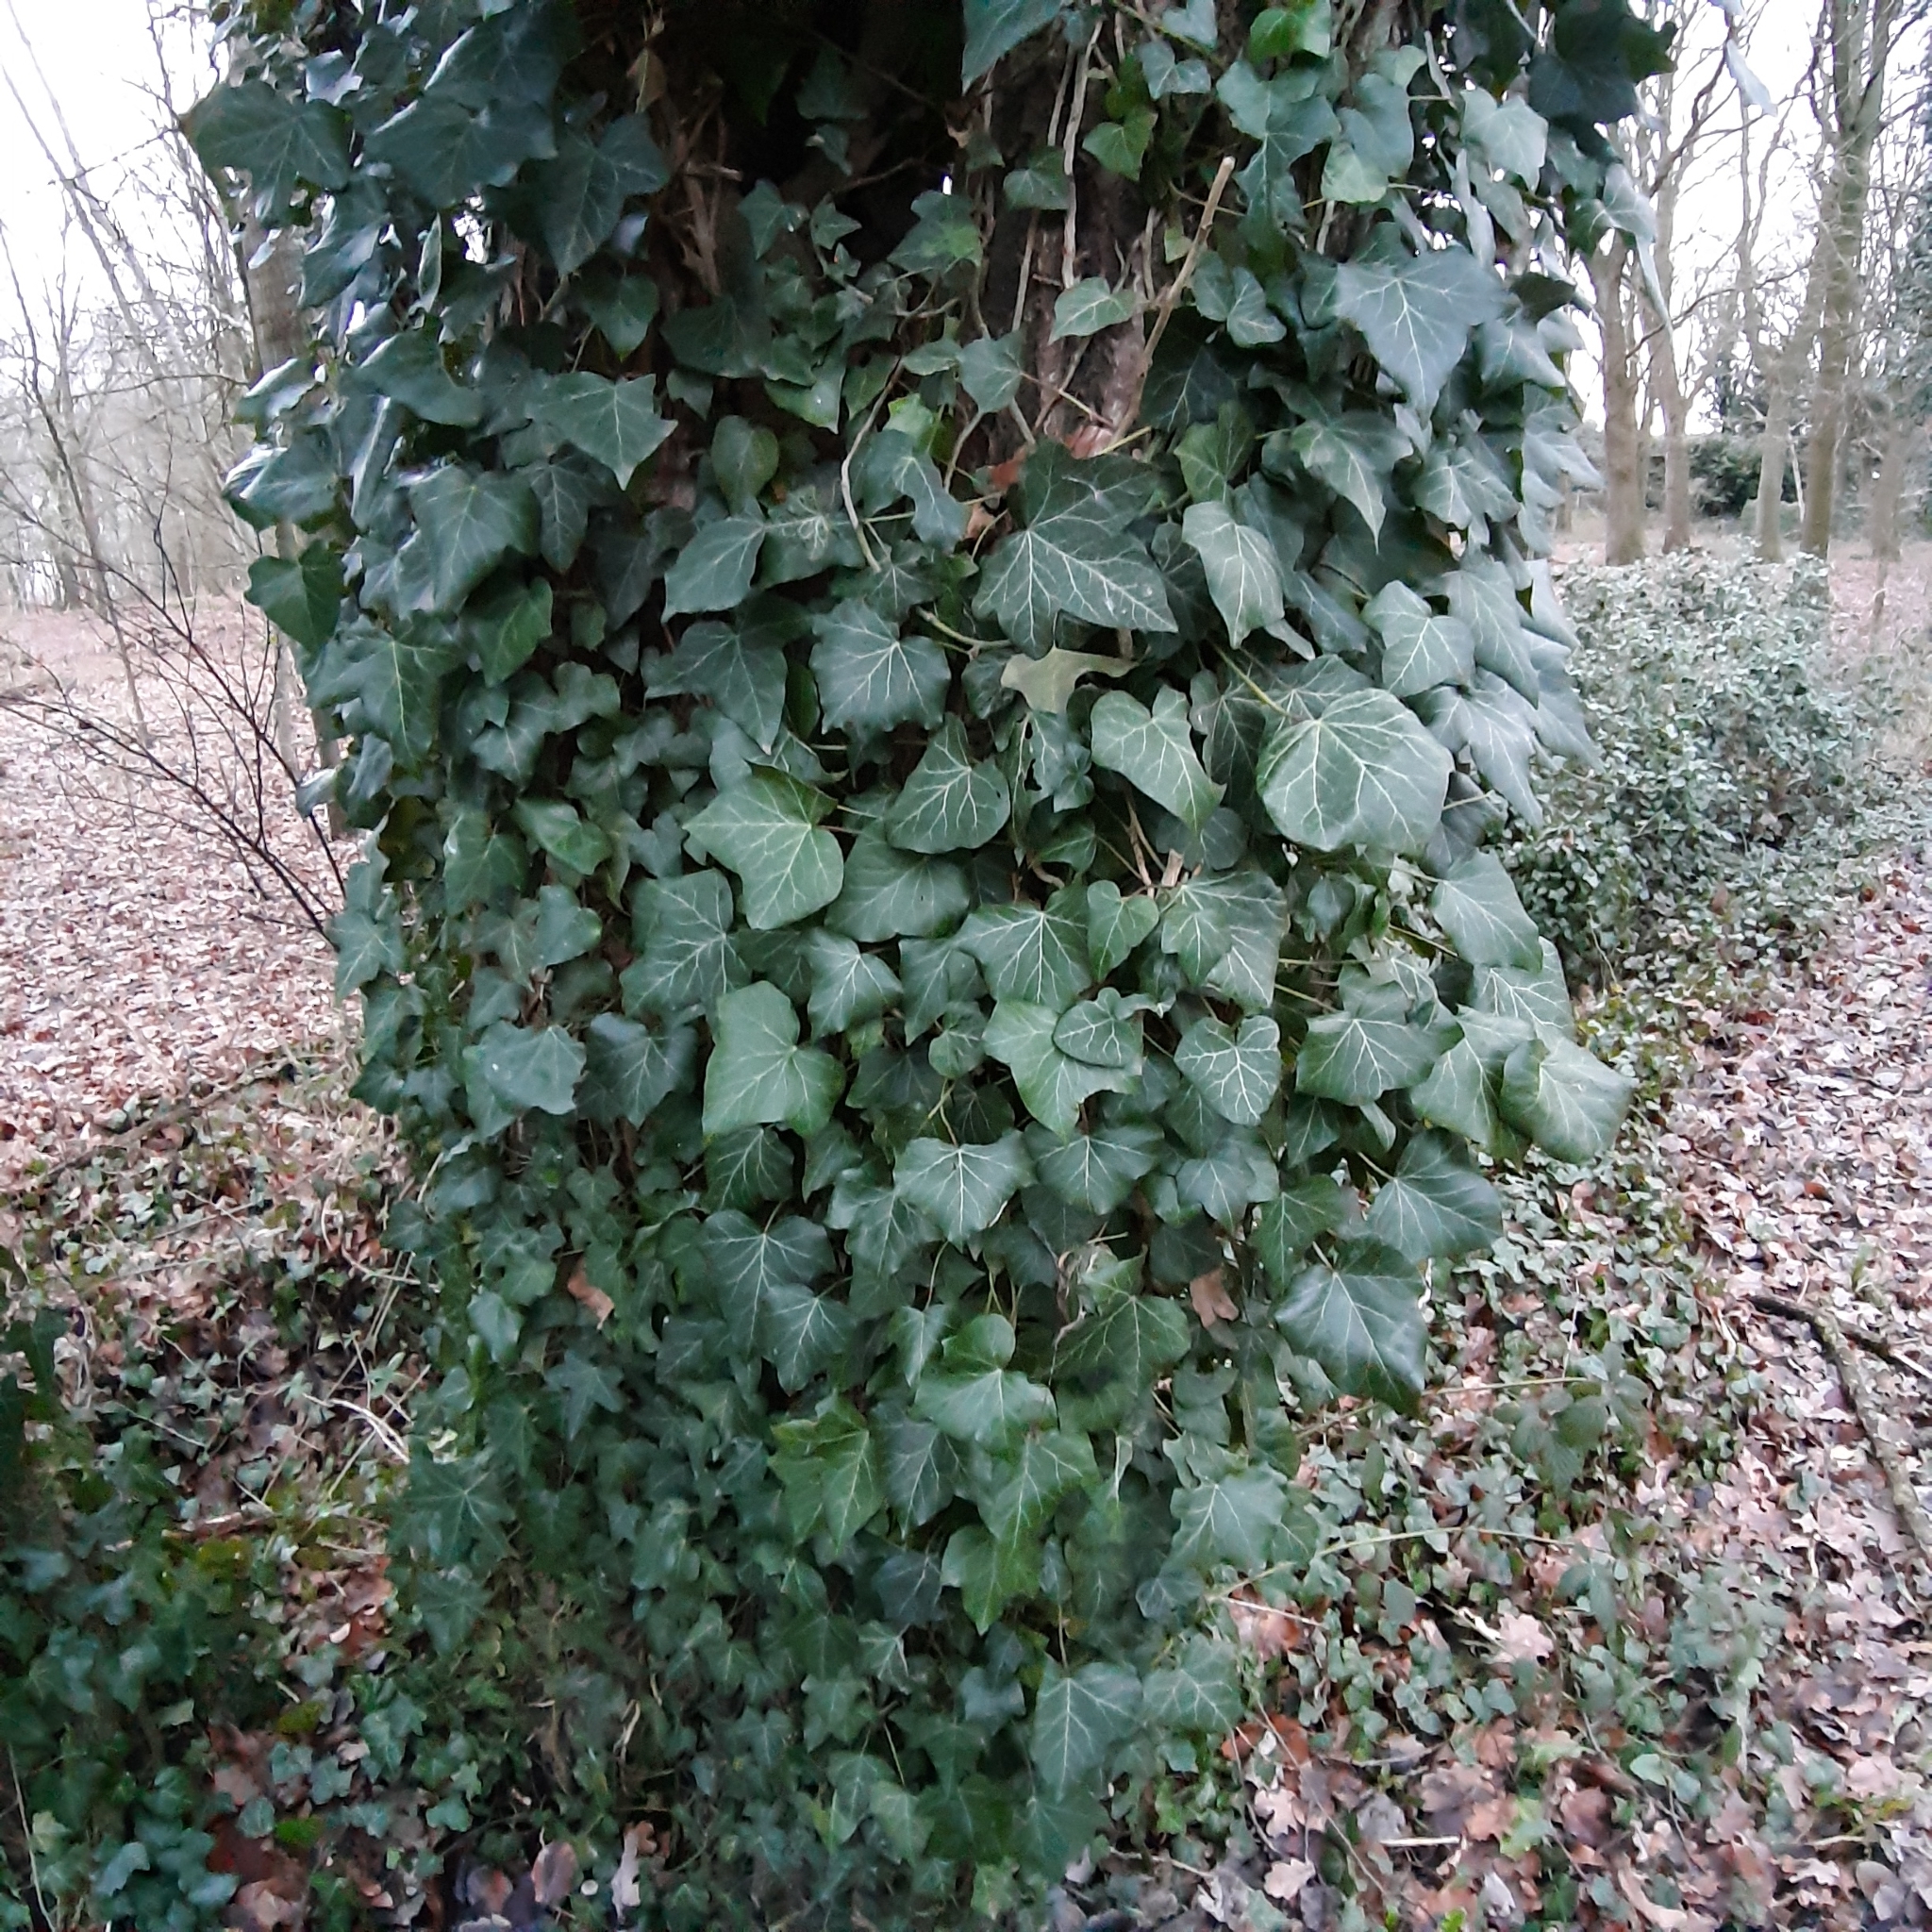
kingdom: Plantae
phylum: Tracheophyta
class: Magnoliopsida
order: Apiales
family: Araliaceae
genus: Hedera
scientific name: Hedera helix
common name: Ivy
